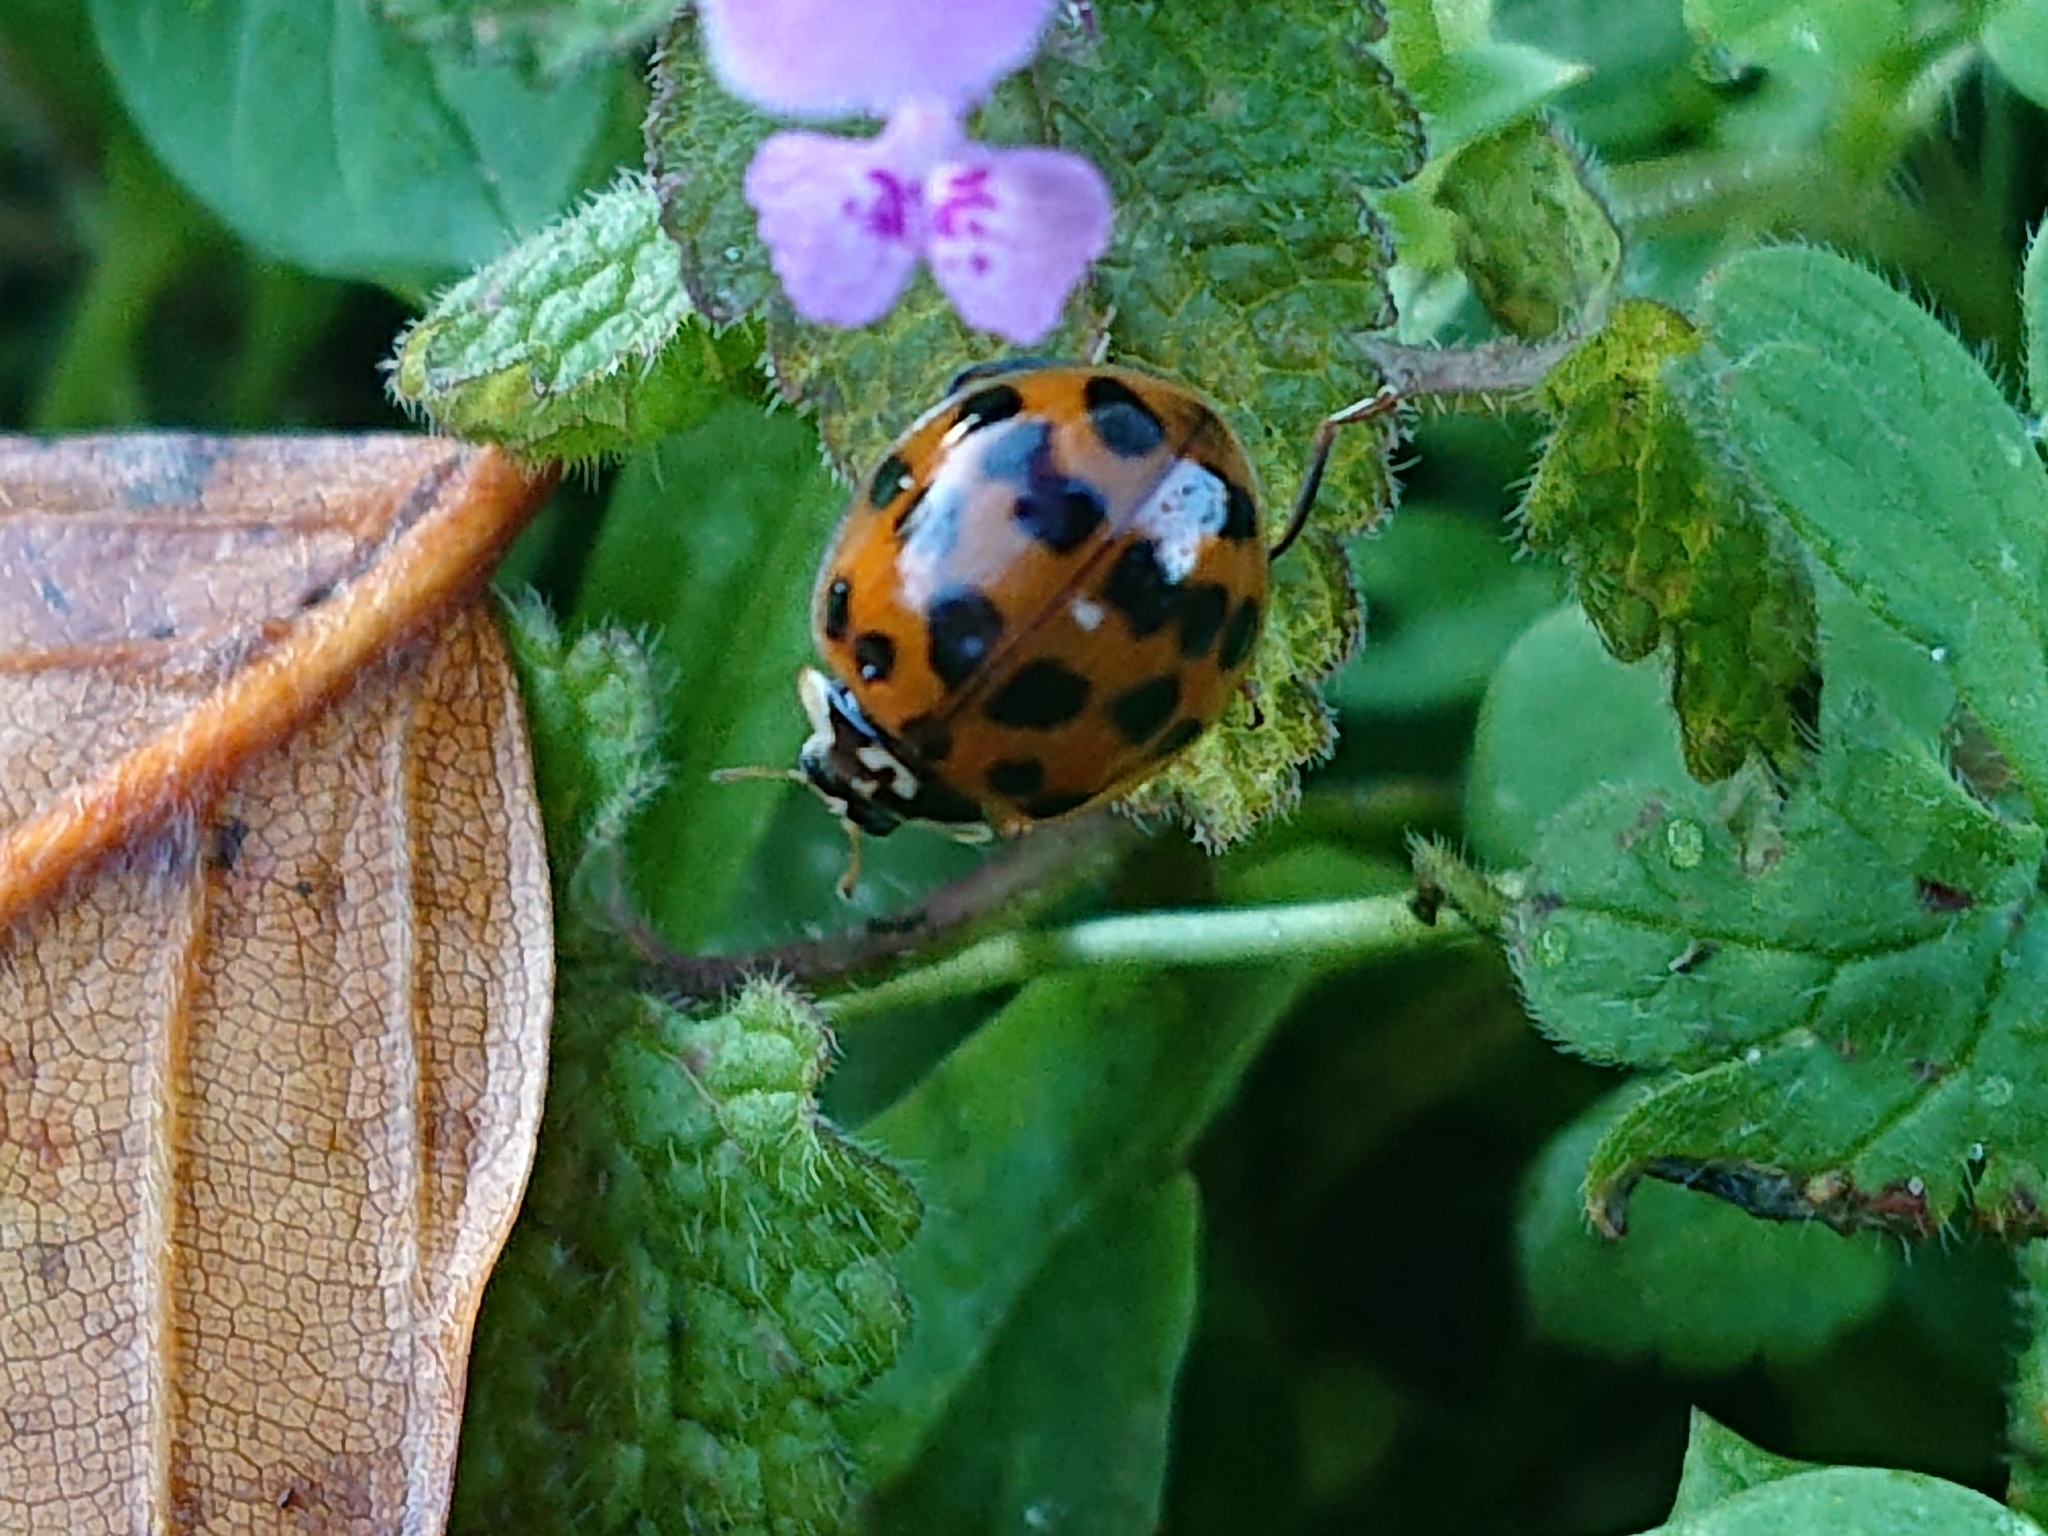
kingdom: Animalia
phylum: Arthropoda
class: Insecta
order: Coleoptera
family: Coccinellidae
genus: Harmonia
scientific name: Harmonia axyridis
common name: Harlequin ladybird
